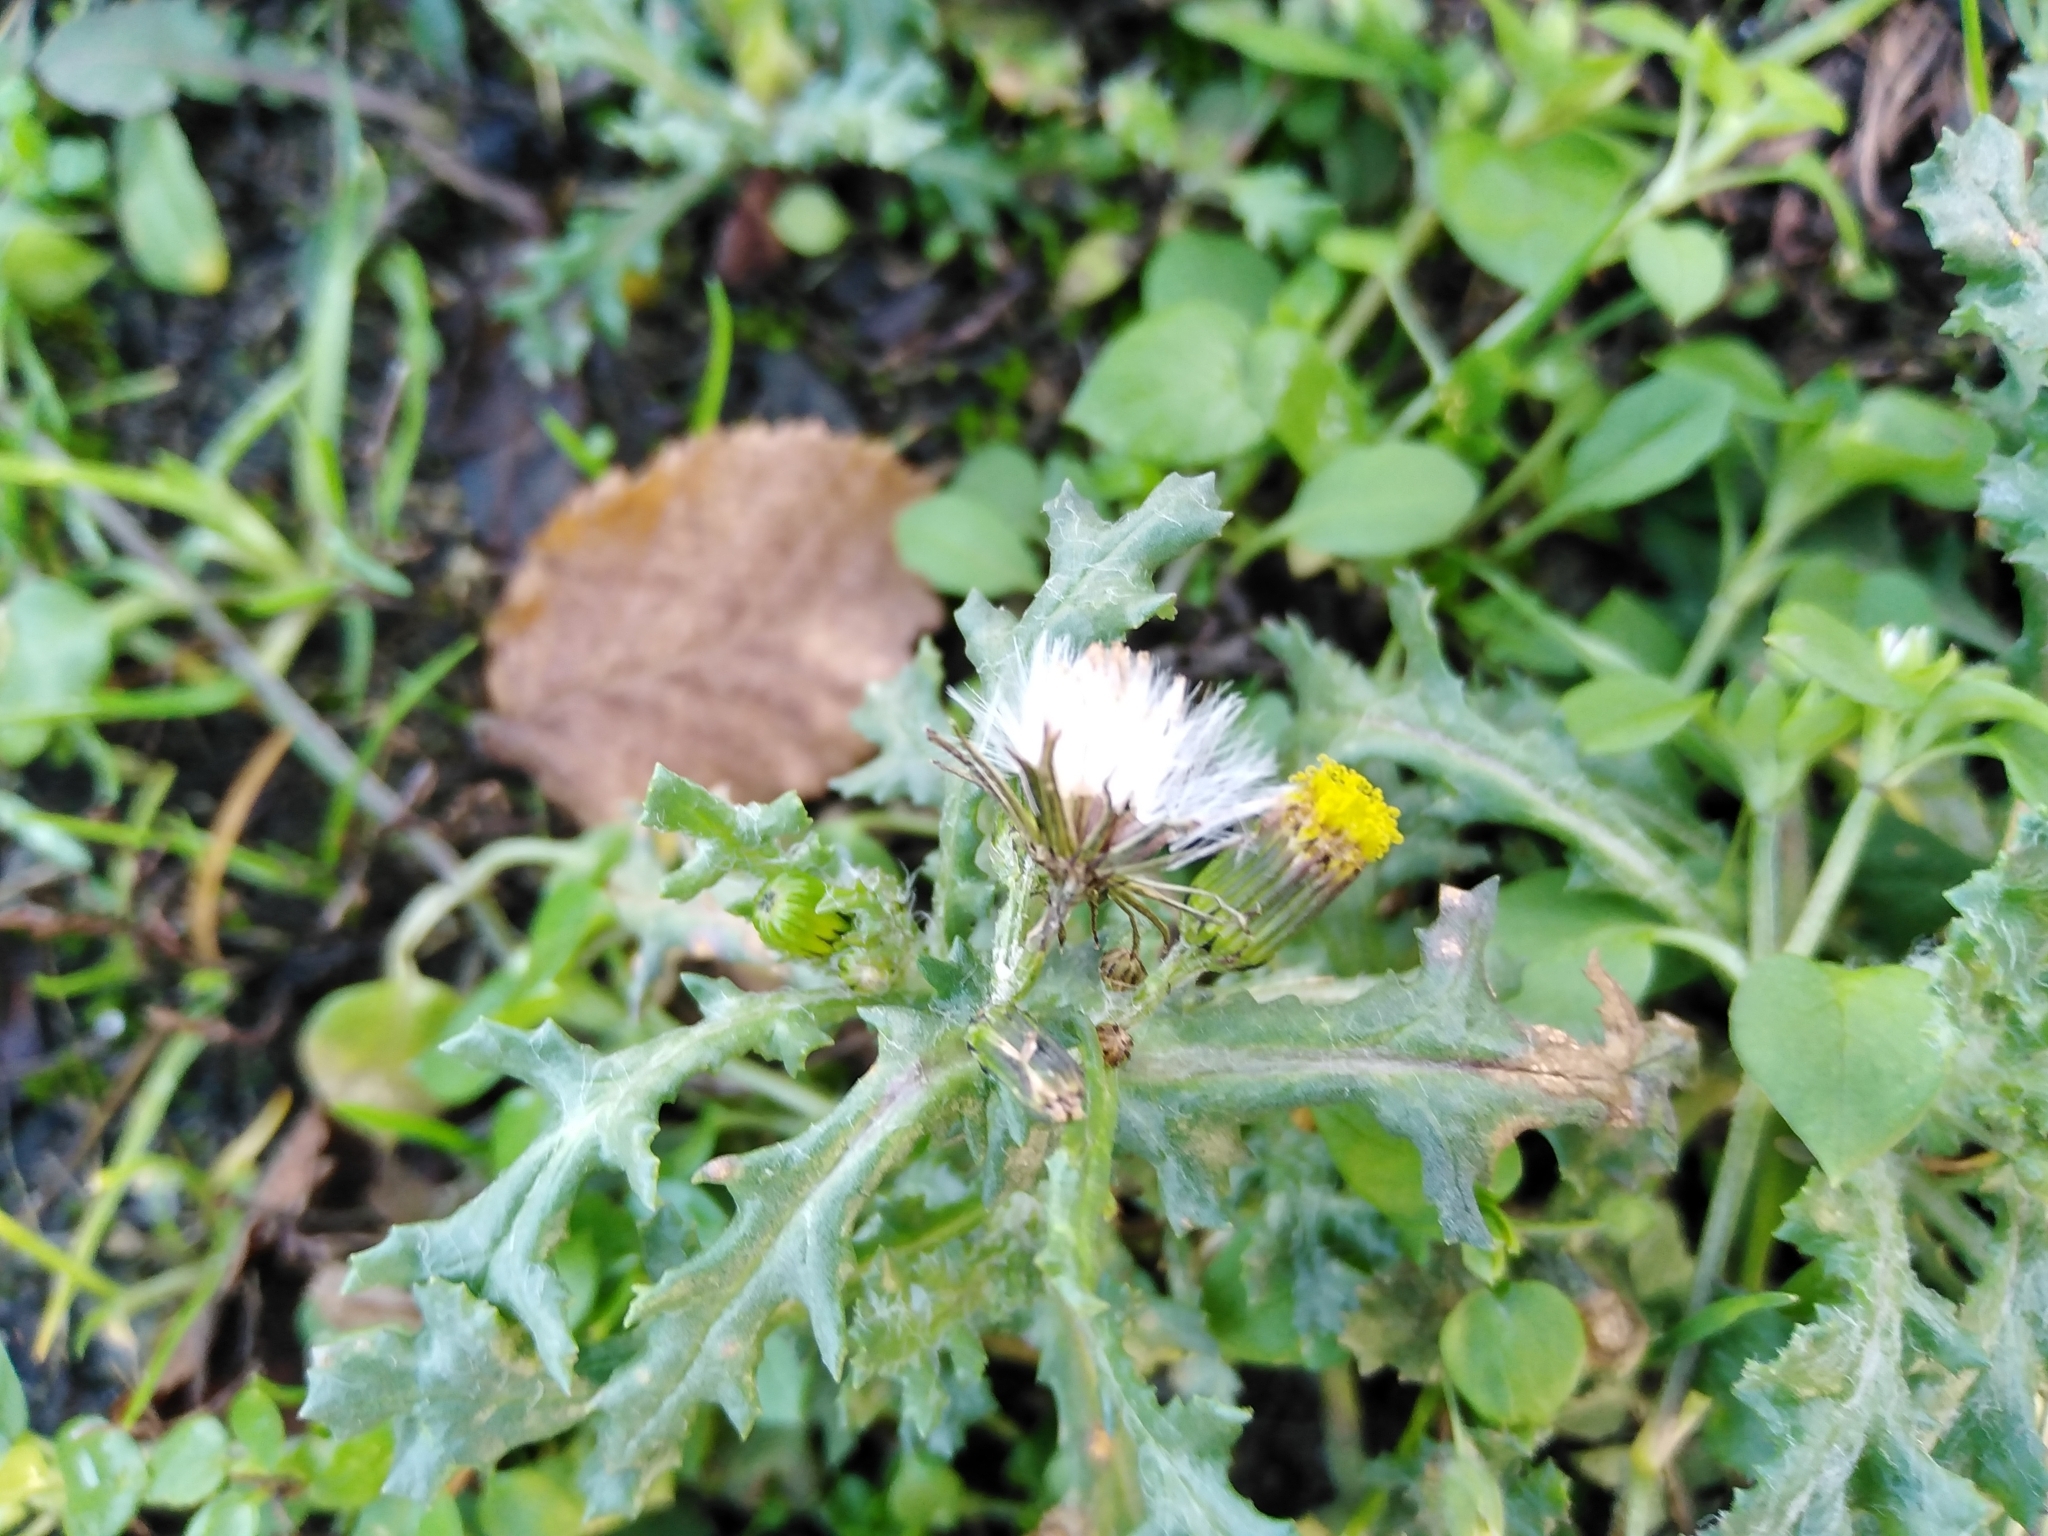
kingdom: Plantae
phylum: Tracheophyta
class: Magnoliopsida
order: Asterales
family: Asteraceae
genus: Senecio
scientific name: Senecio vulgaris
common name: Old-man-in-the-spring
